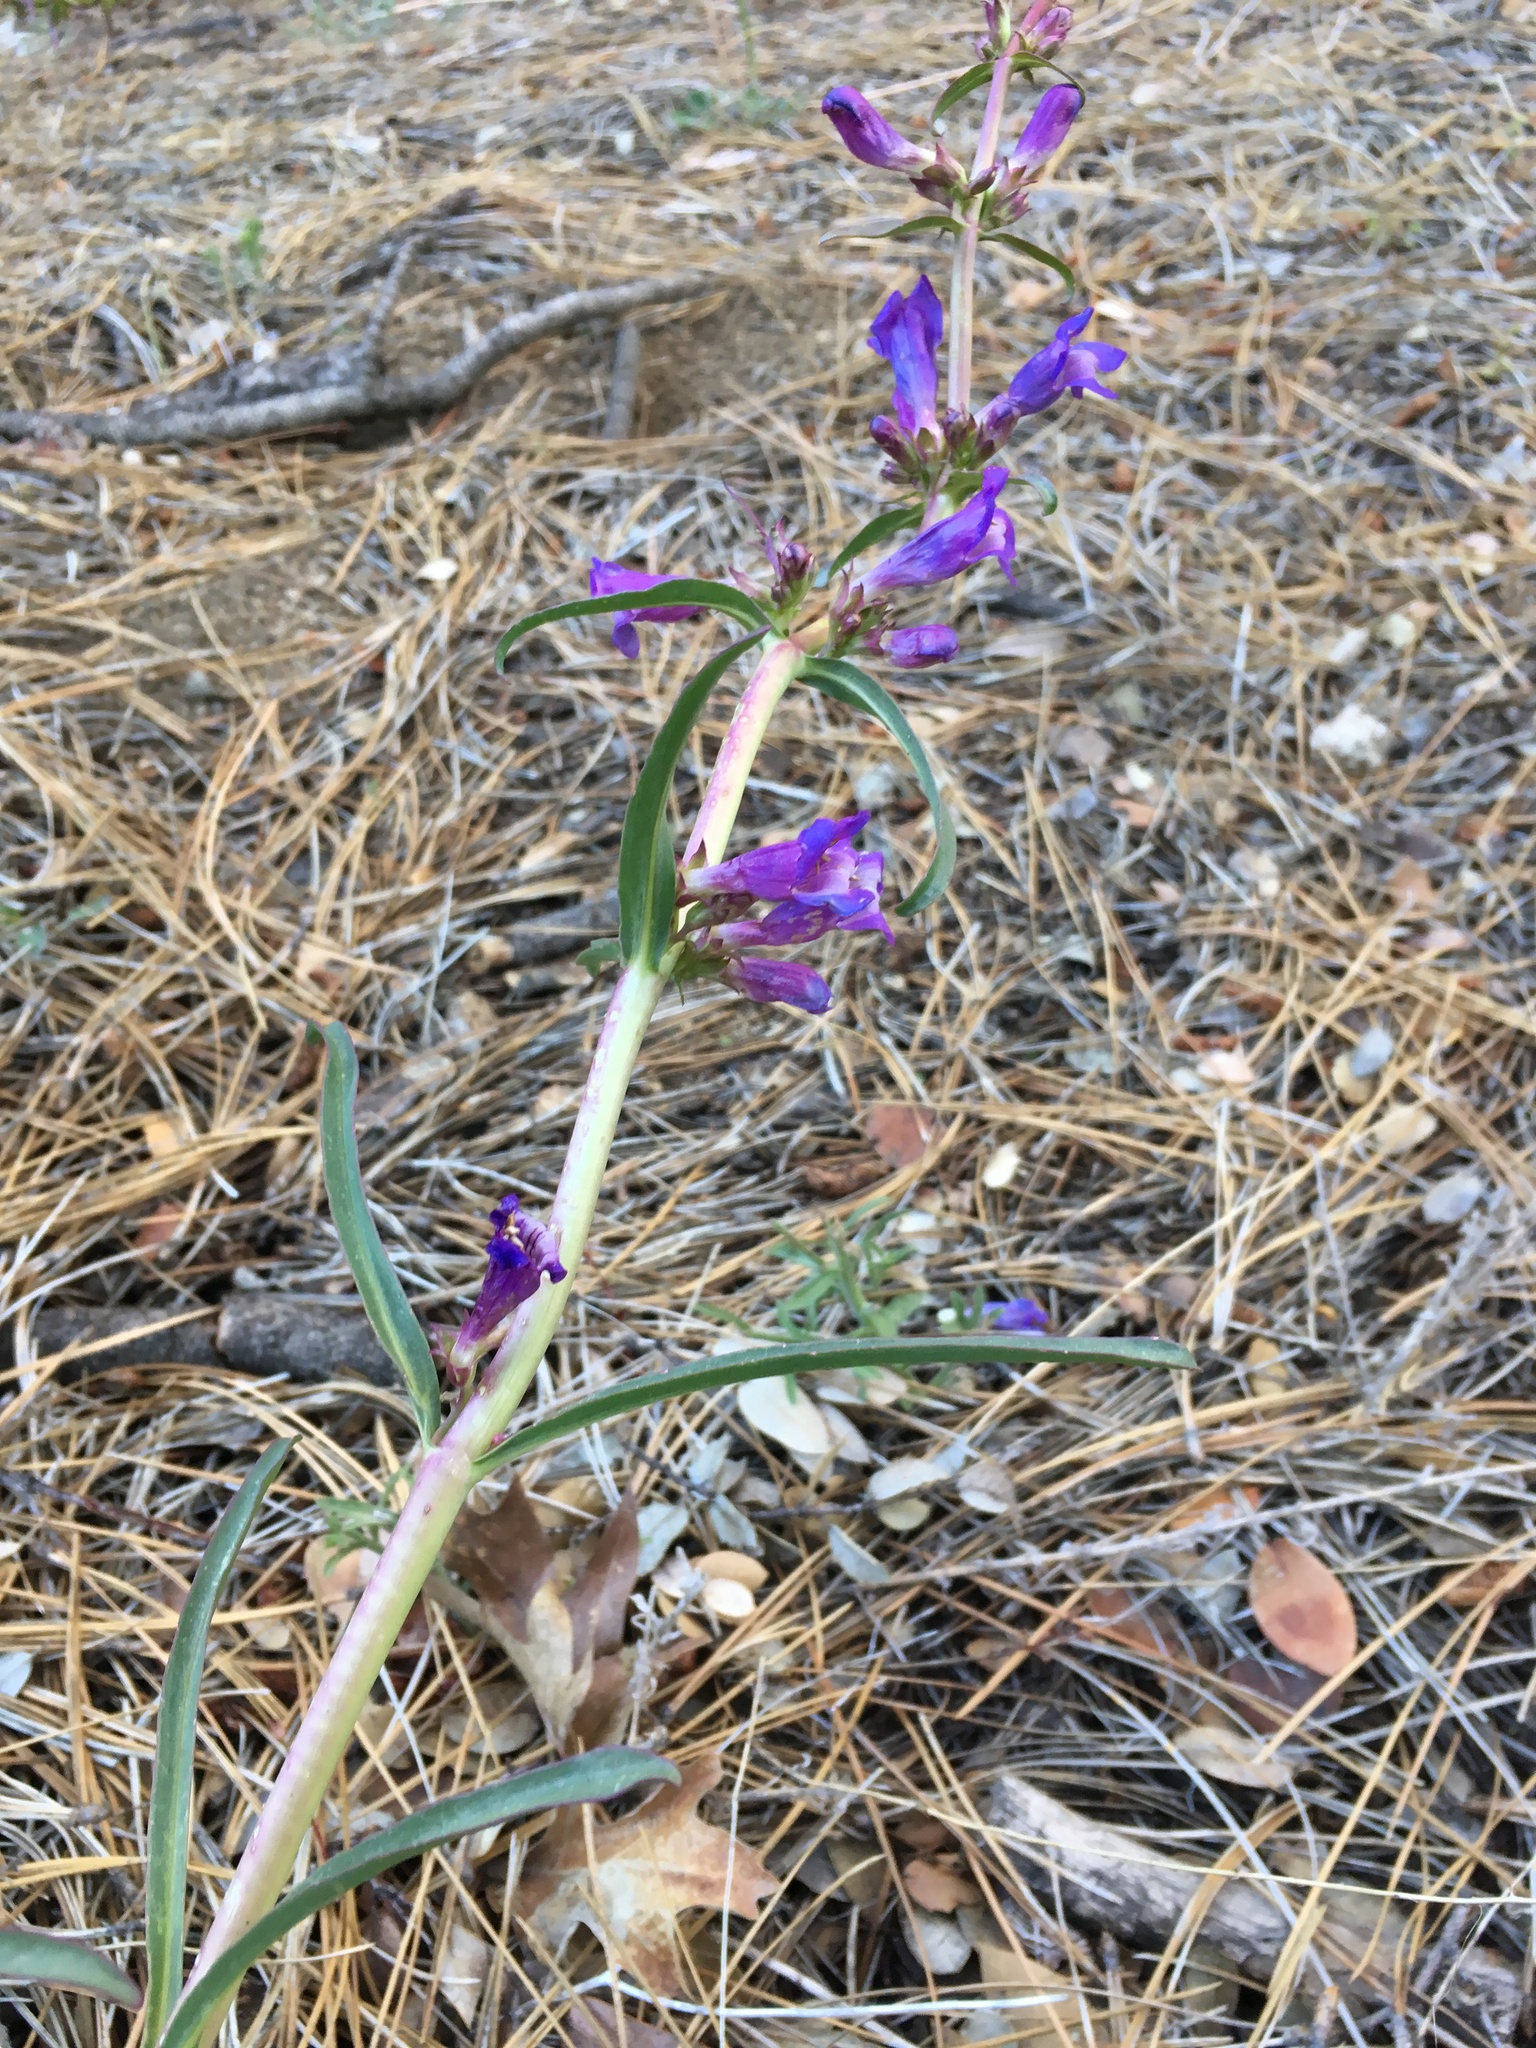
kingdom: Plantae
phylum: Tracheophyta
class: Magnoliopsida
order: Lamiales
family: Plantaginaceae
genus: Penstemon
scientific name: Penstemon speciosus
